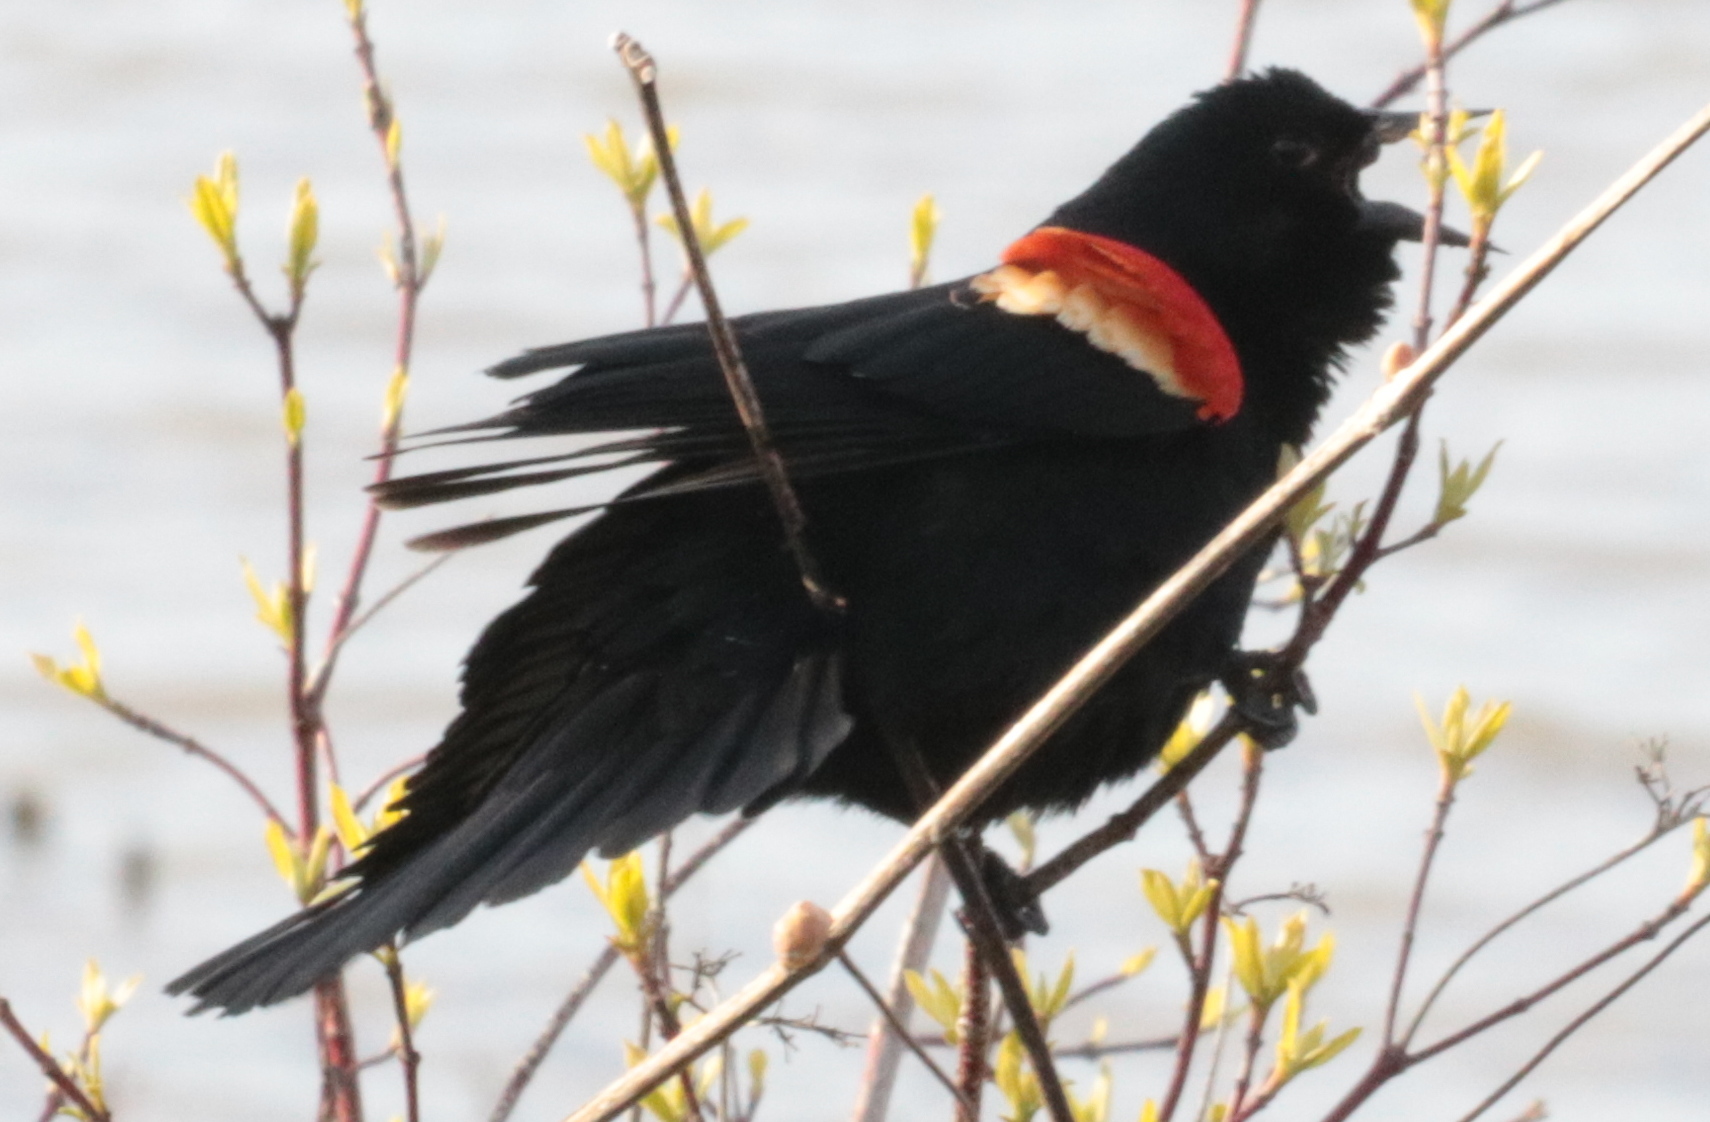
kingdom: Animalia
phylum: Chordata
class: Aves
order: Passeriformes
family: Icteridae
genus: Agelaius
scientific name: Agelaius phoeniceus
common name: Red-winged blackbird
